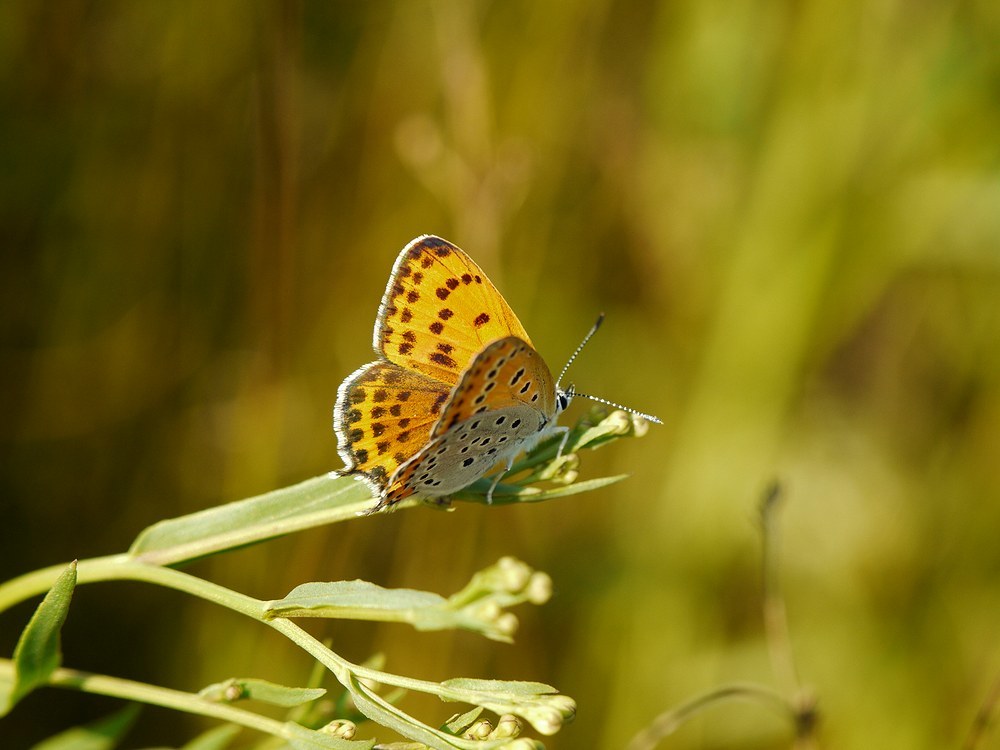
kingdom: Animalia
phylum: Arthropoda
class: Insecta
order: Lepidoptera
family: Lycaenidae
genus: Thersamonia
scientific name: Thersamonia thersamon
